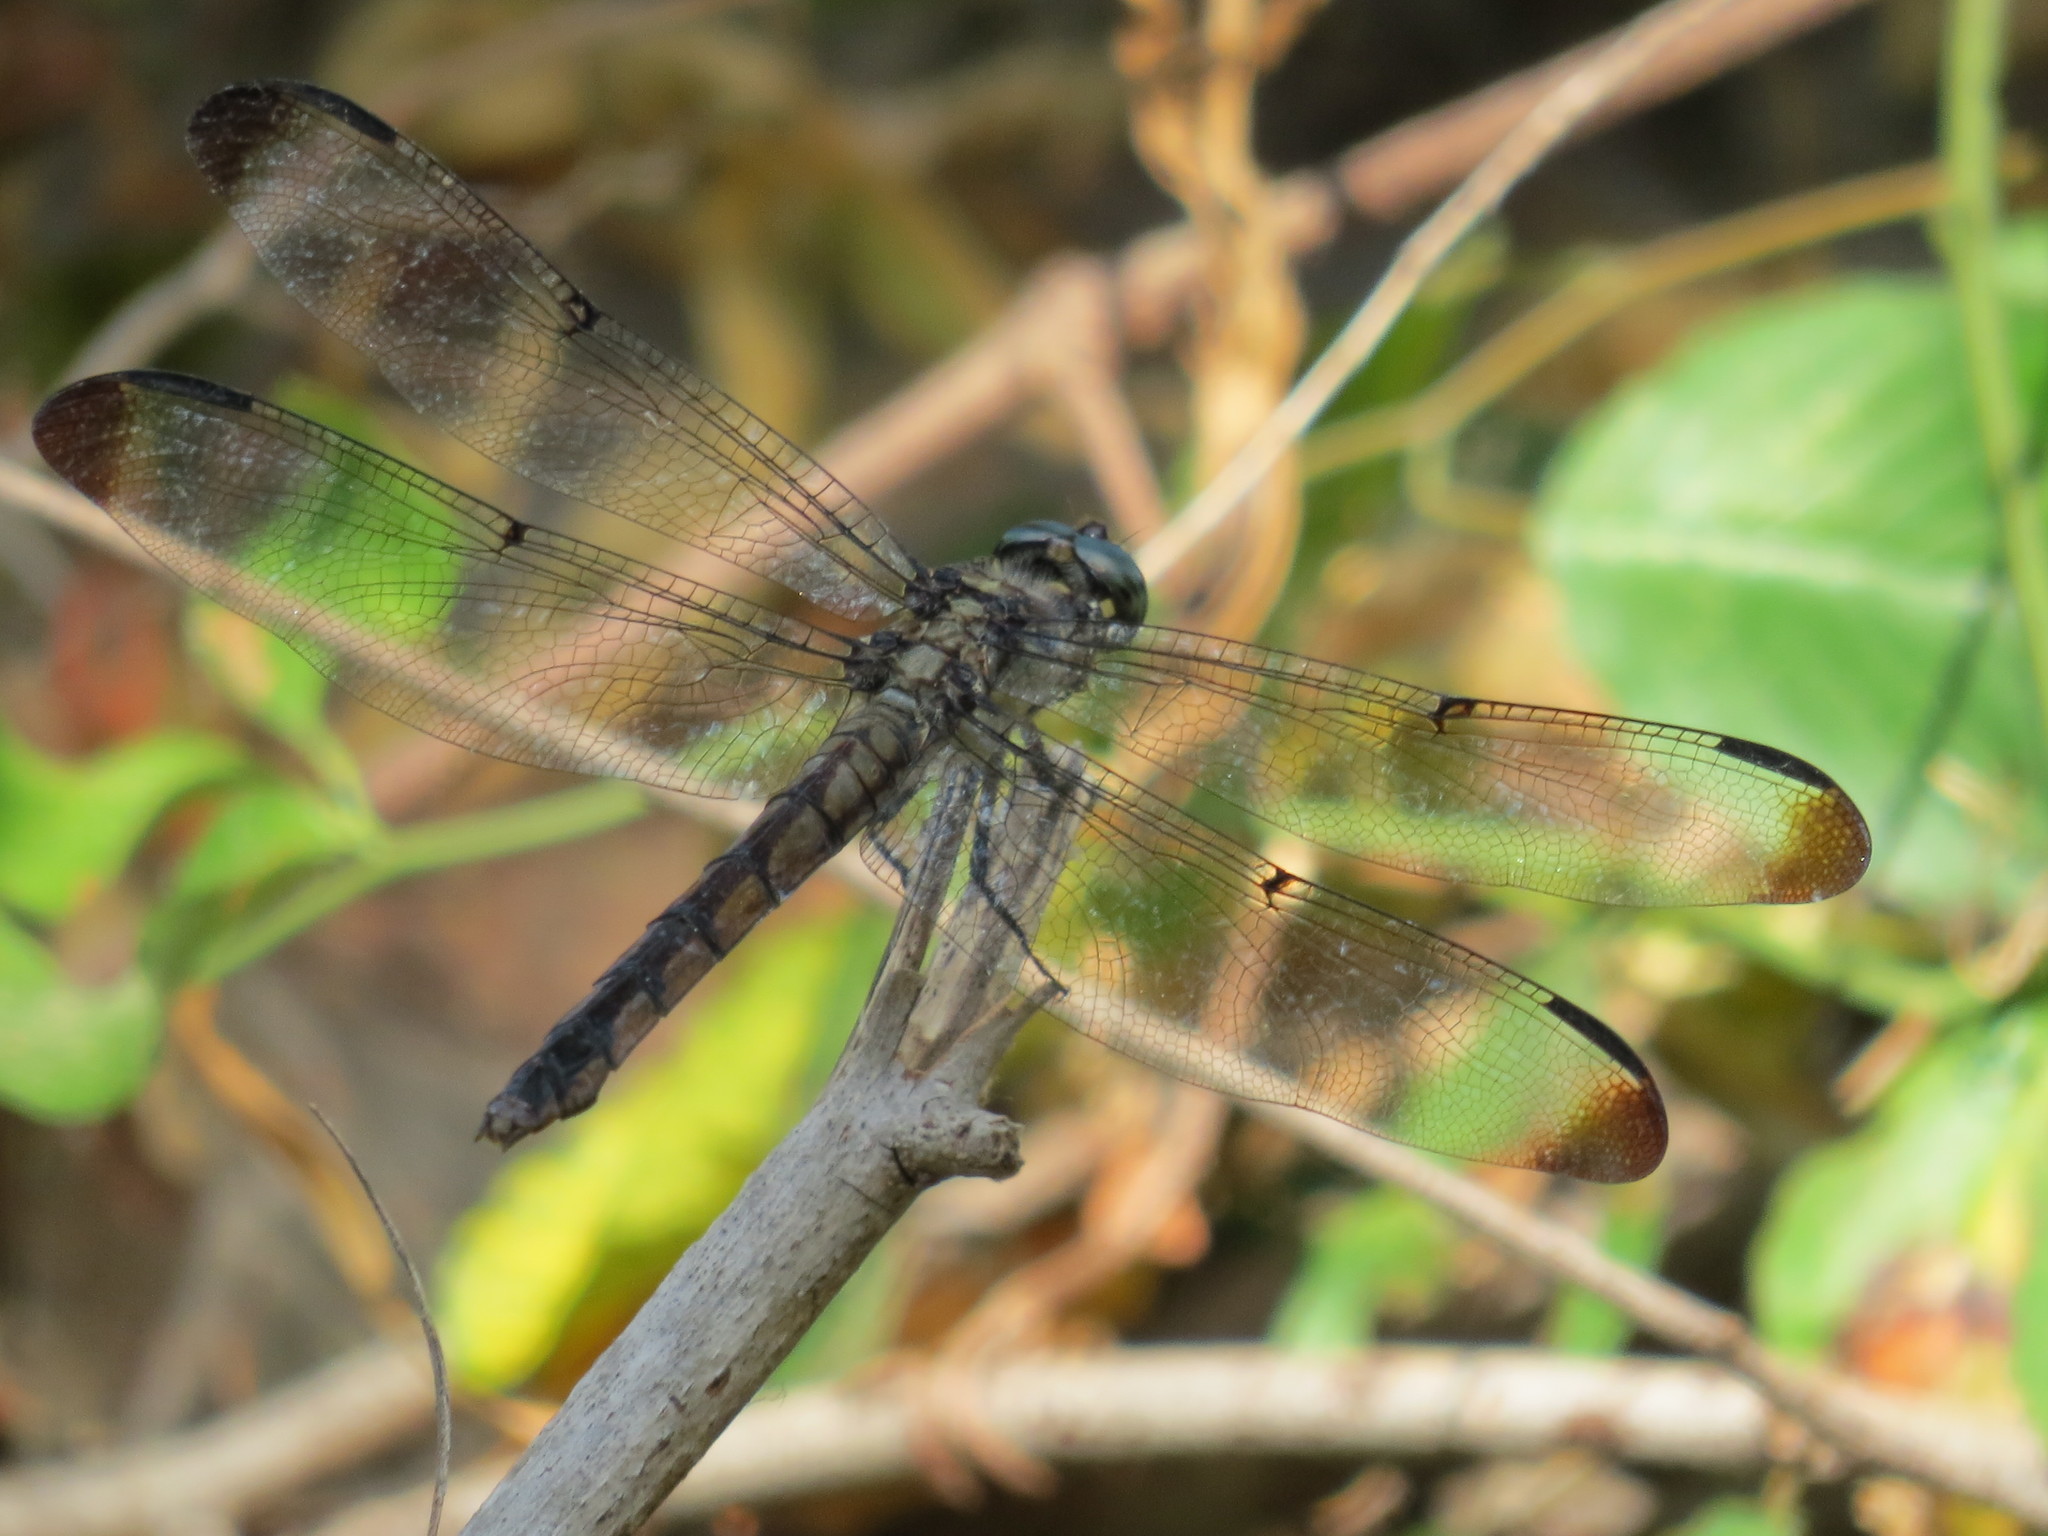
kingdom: Animalia
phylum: Arthropoda
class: Insecta
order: Odonata
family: Libellulidae
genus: Libellula
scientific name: Libellula vibrans
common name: Great blue skimmer
